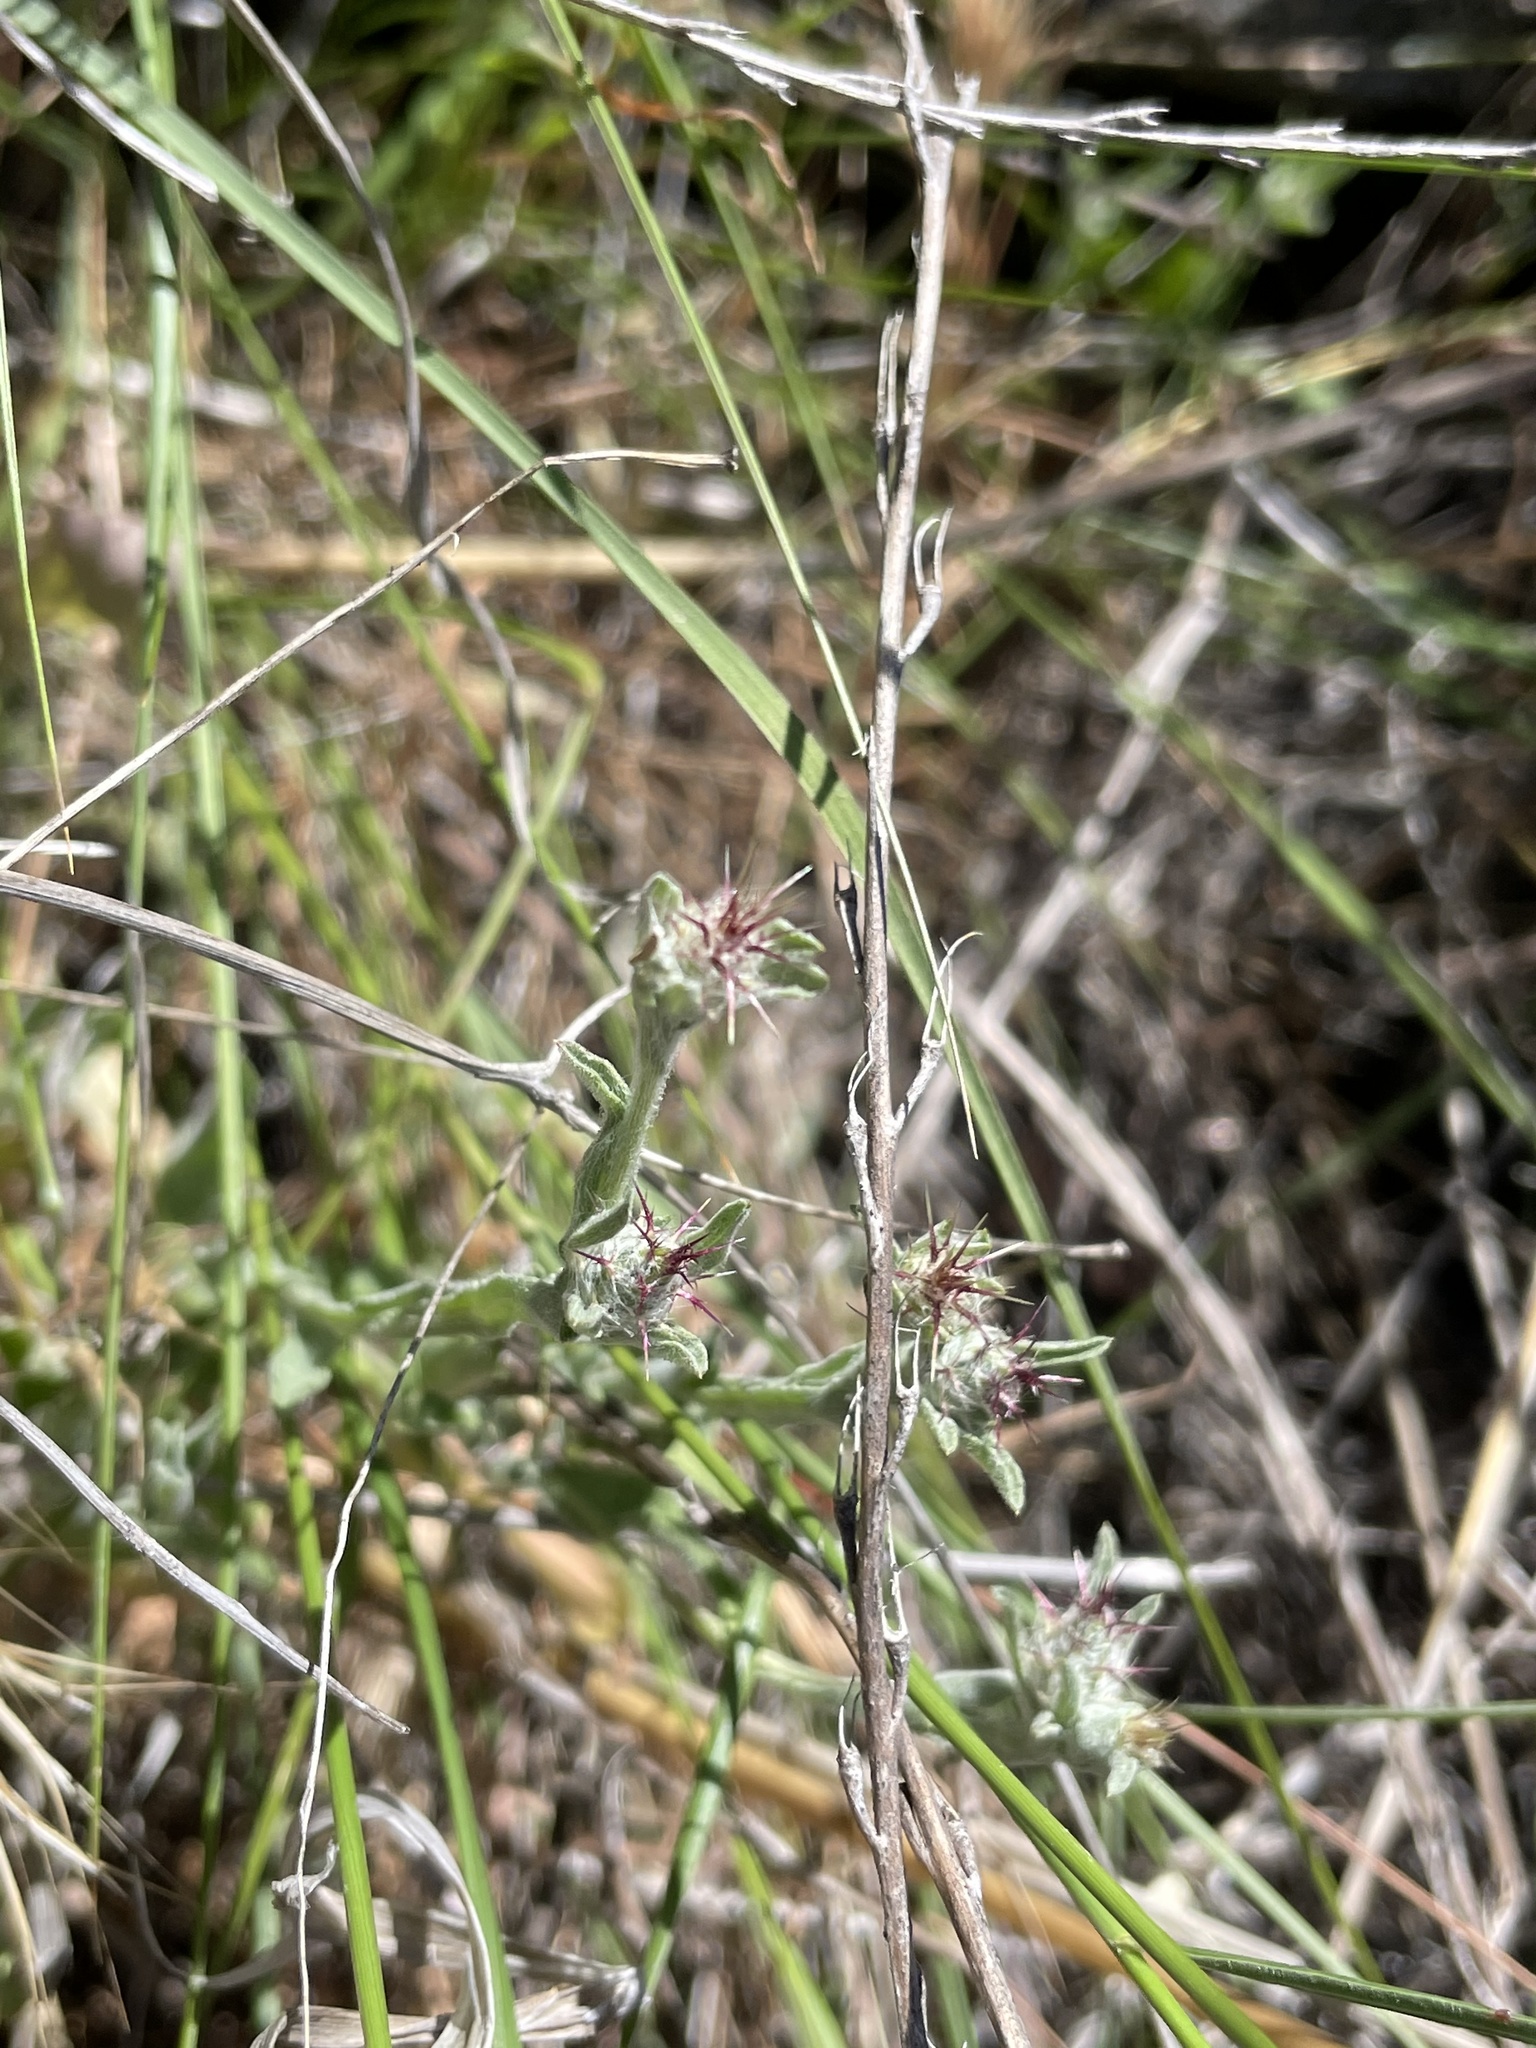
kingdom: Plantae
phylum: Tracheophyta
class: Magnoliopsida
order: Asterales
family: Asteraceae
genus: Centaurea
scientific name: Centaurea melitensis
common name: Maltese star-thistle
